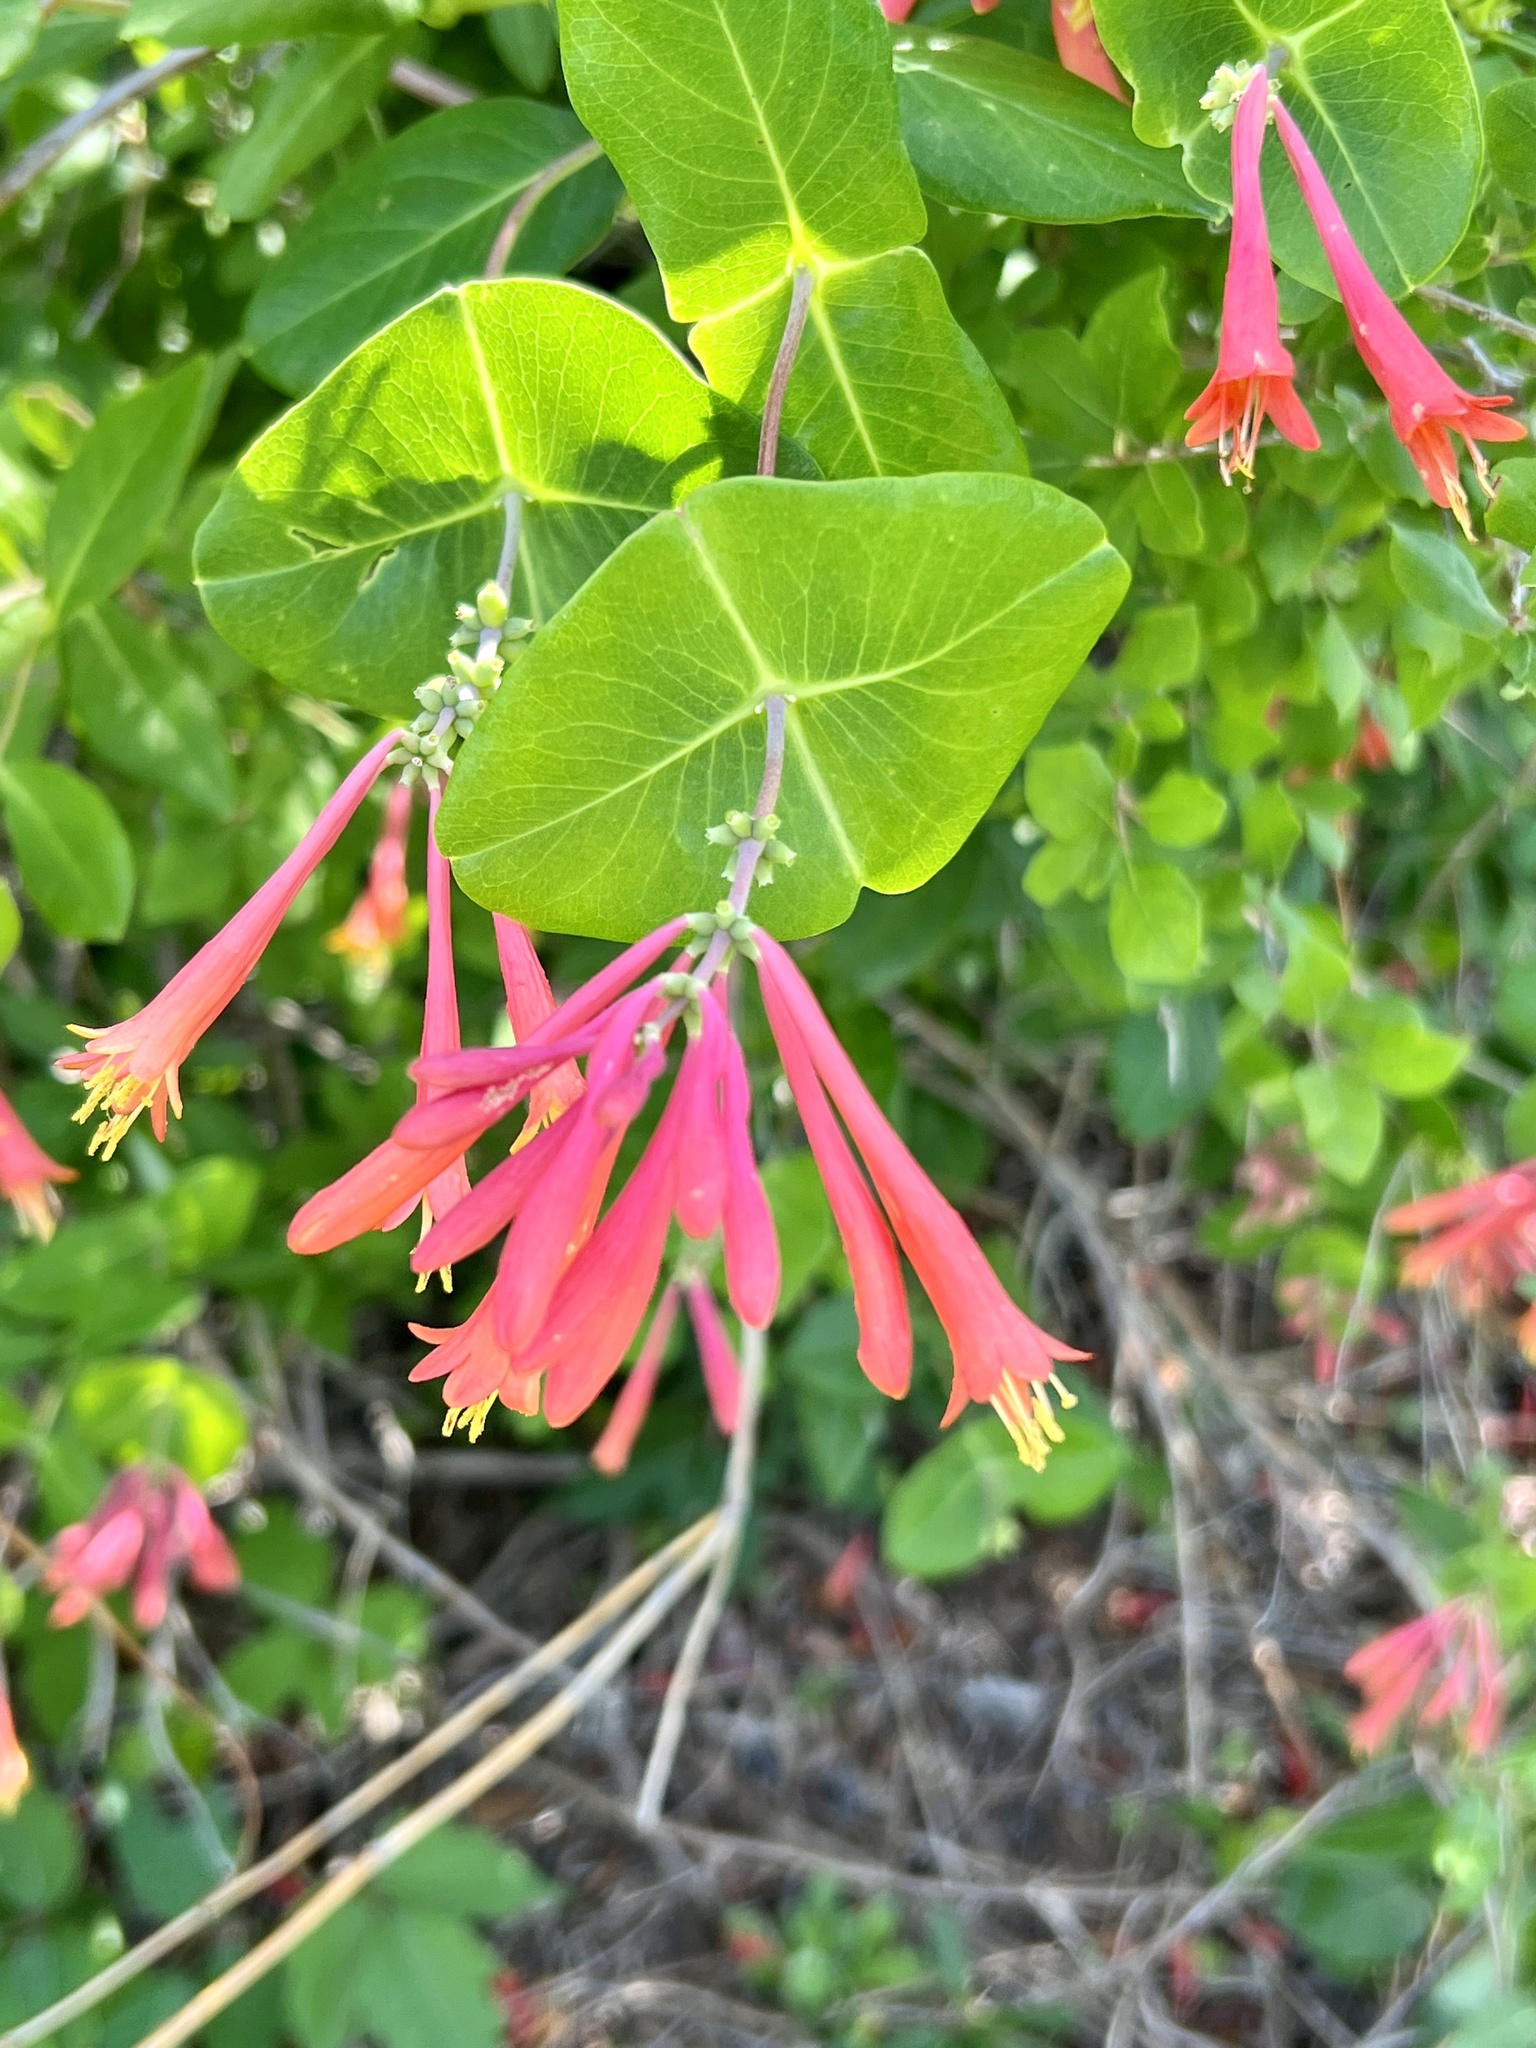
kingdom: Plantae
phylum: Tracheophyta
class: Magnoliopsida
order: Dipsacales
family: Caprifoliaceae
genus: Lonicera
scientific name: Lonicera sempervirens
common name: Coral honeysuckle
